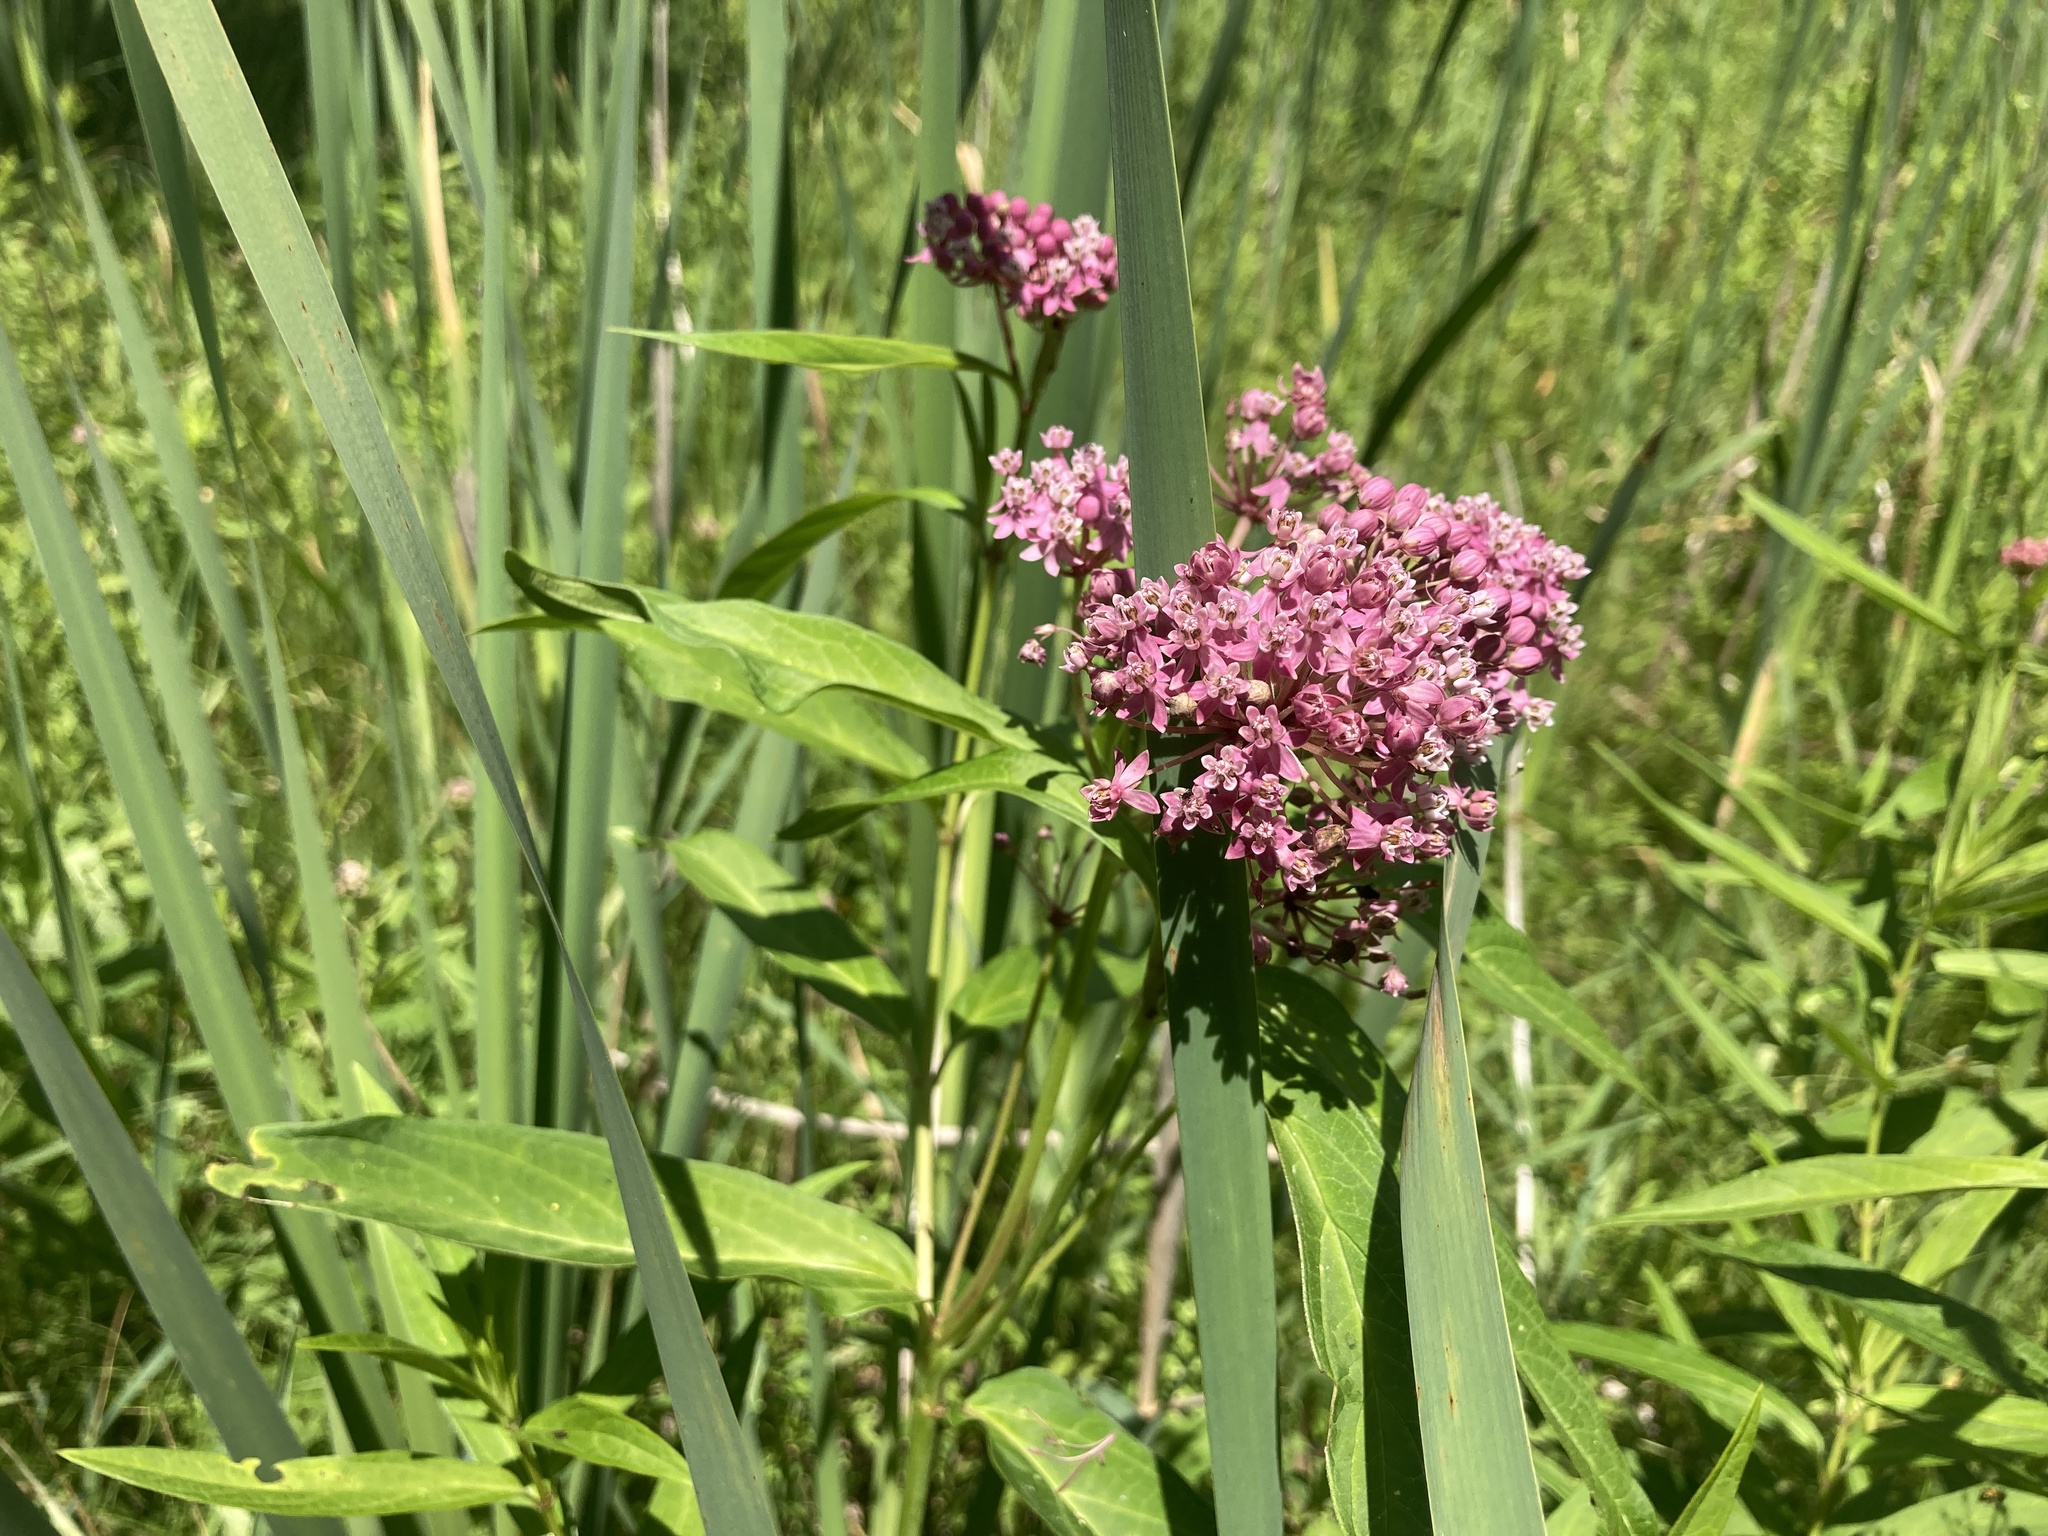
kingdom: Plantae
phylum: Tracheophyta
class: Magnoliopsida
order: Gentianales
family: Apocynaceae
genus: Asclepias
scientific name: Asclepias incarnata
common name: Swamp milkweed
